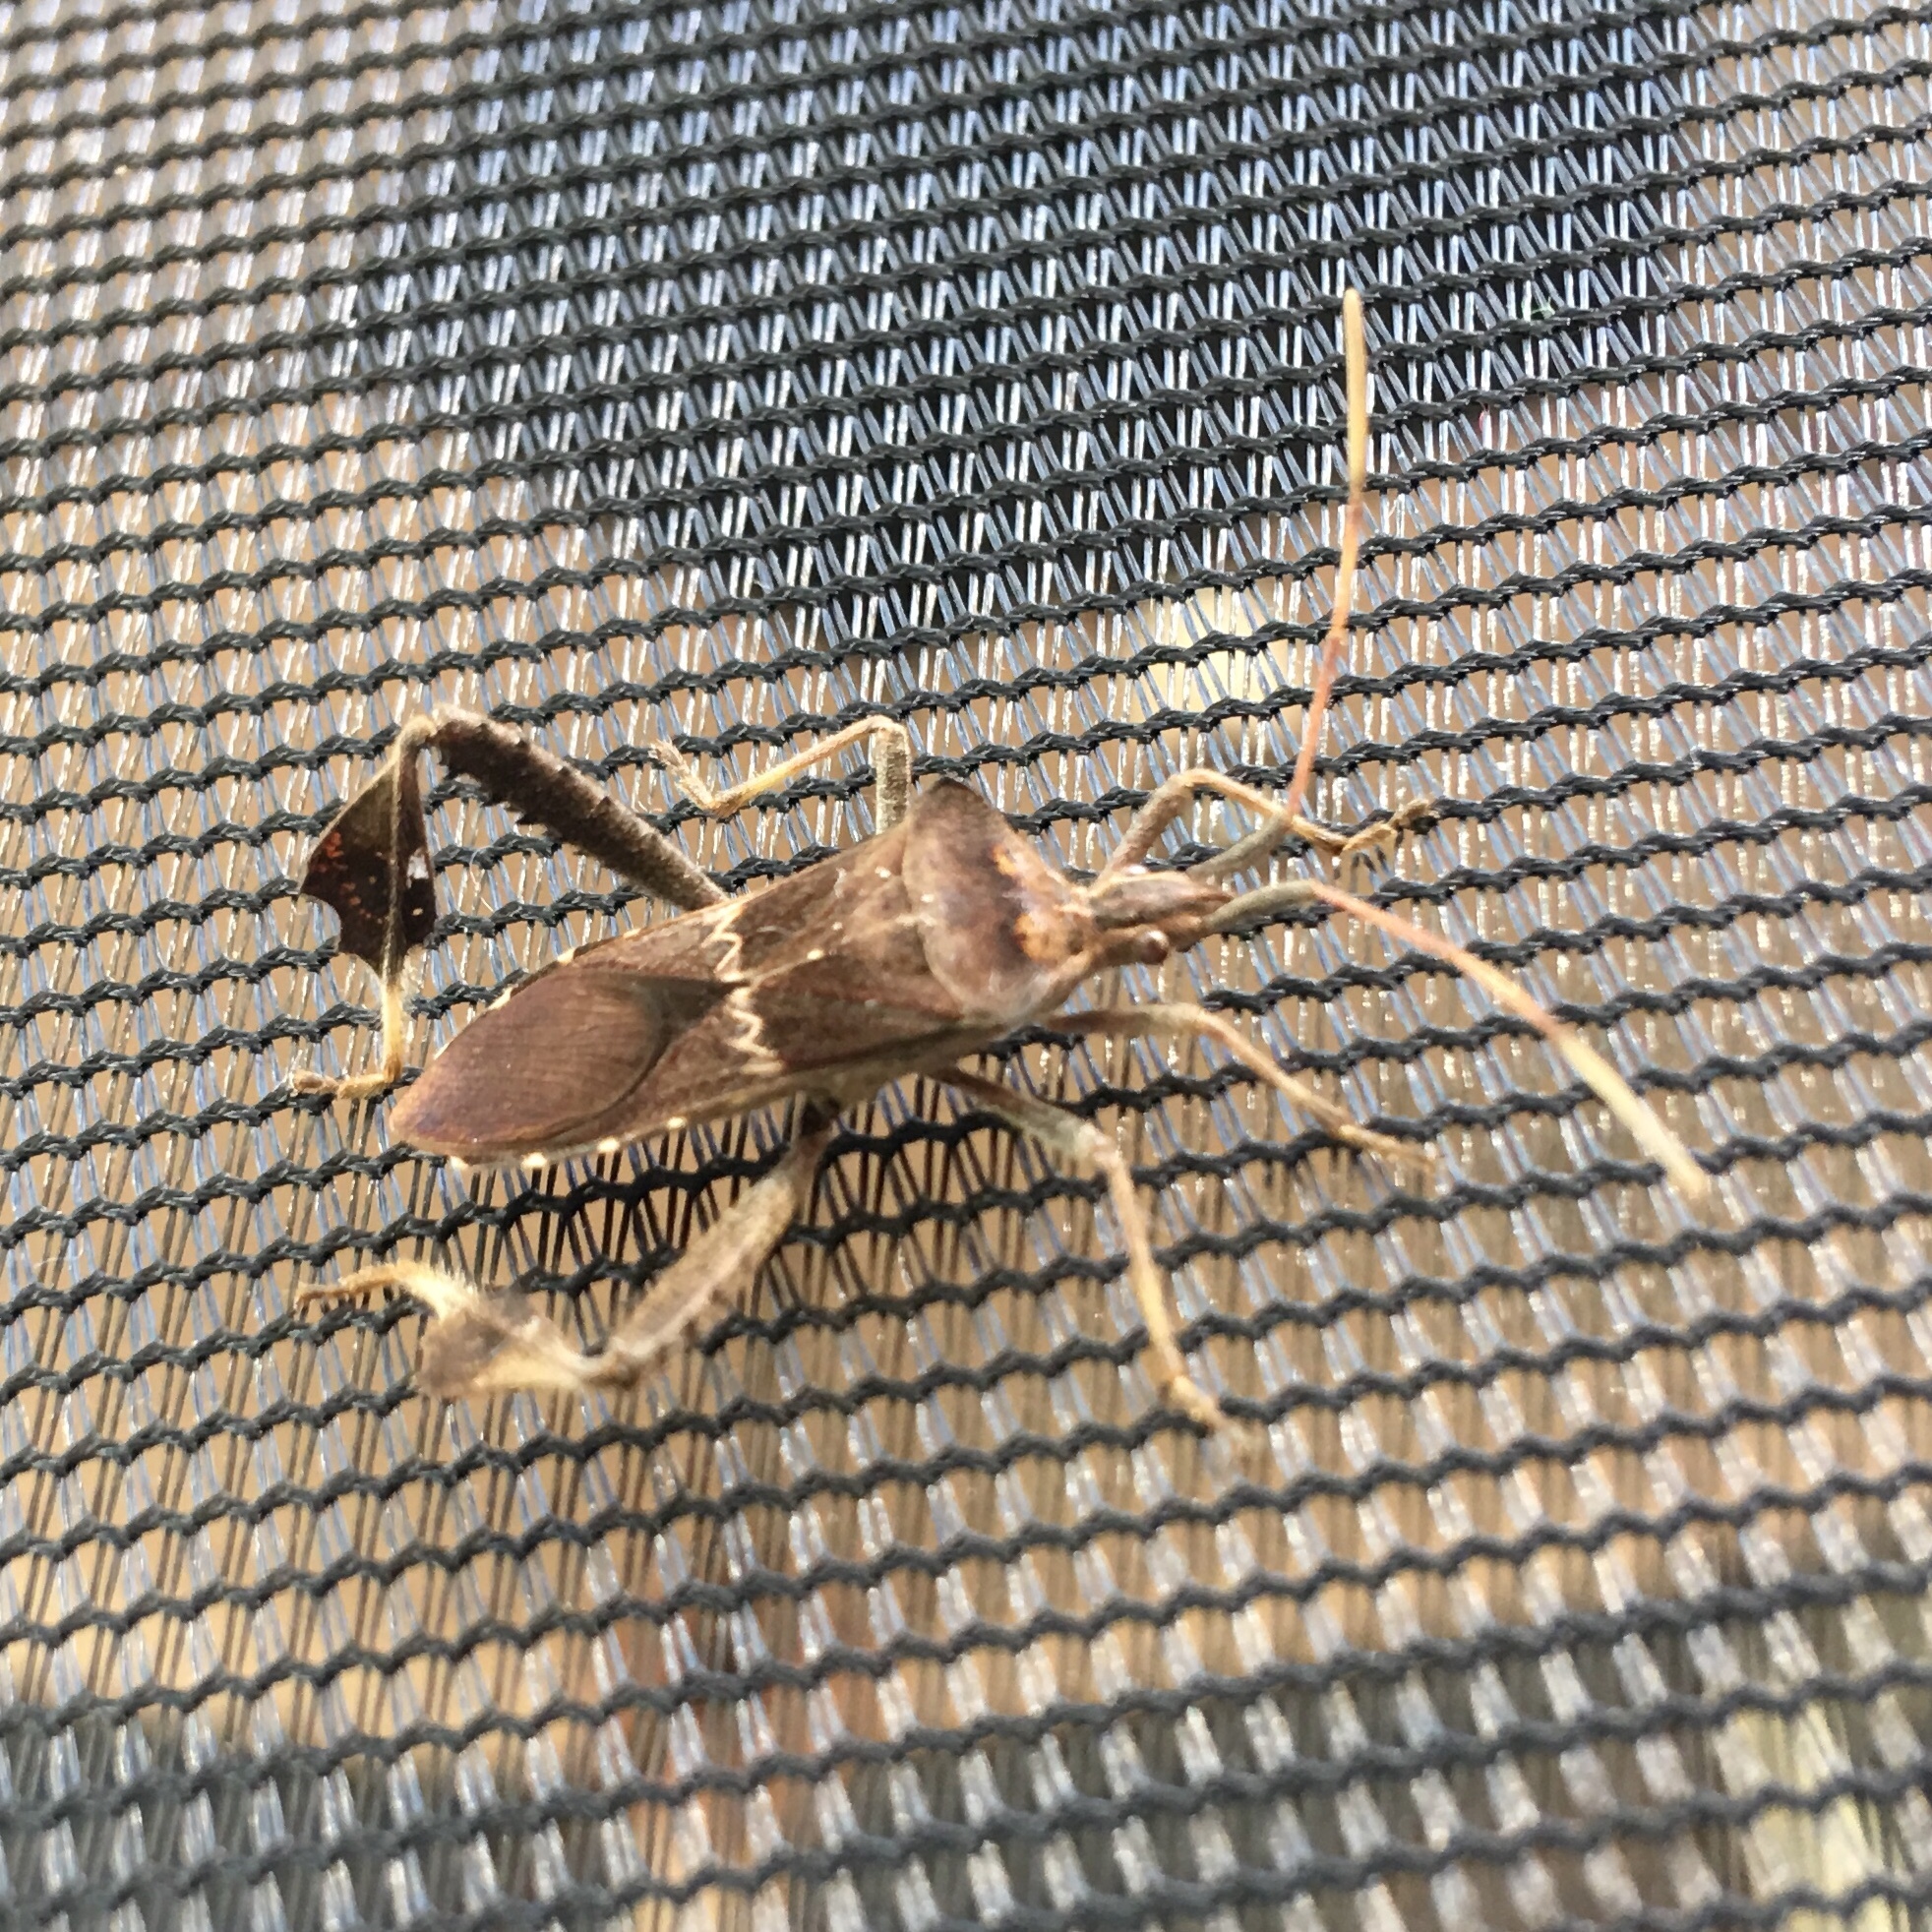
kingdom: Animalia
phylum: Arthropoda
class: Insecta
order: Hemiptera
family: Coreidae
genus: Leptoglossus
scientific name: Leptoglossus zonatus
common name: Large-legged bug
